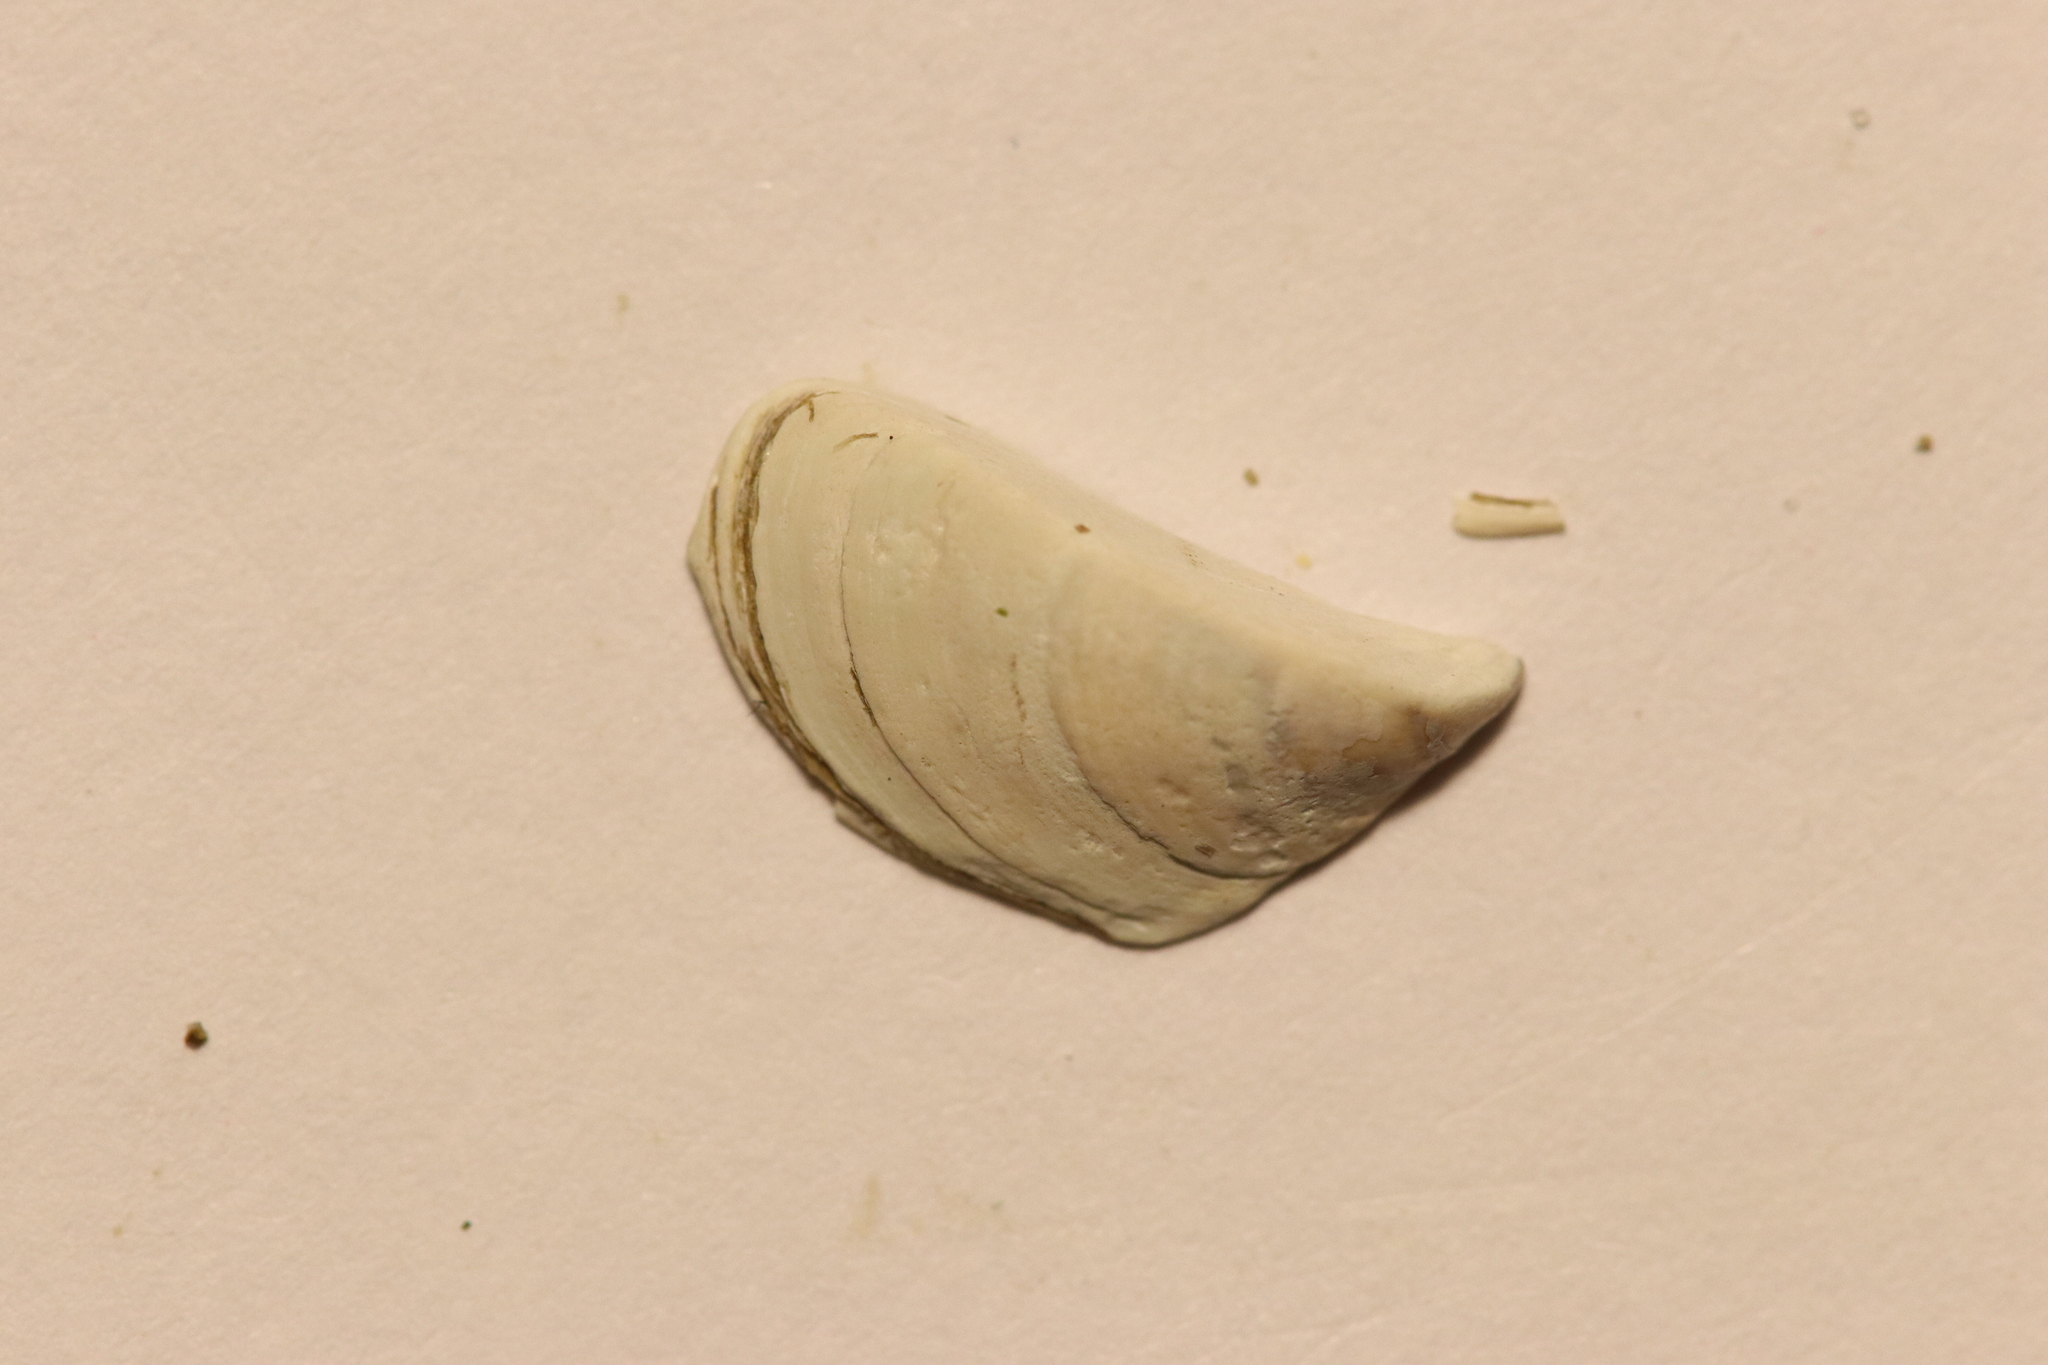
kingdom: Animalia
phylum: Mollusca
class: Bivalvia
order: Myida
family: Dreissenidae
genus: Dreissena
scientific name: Dreissena polymorpha
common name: Zebra mussel
